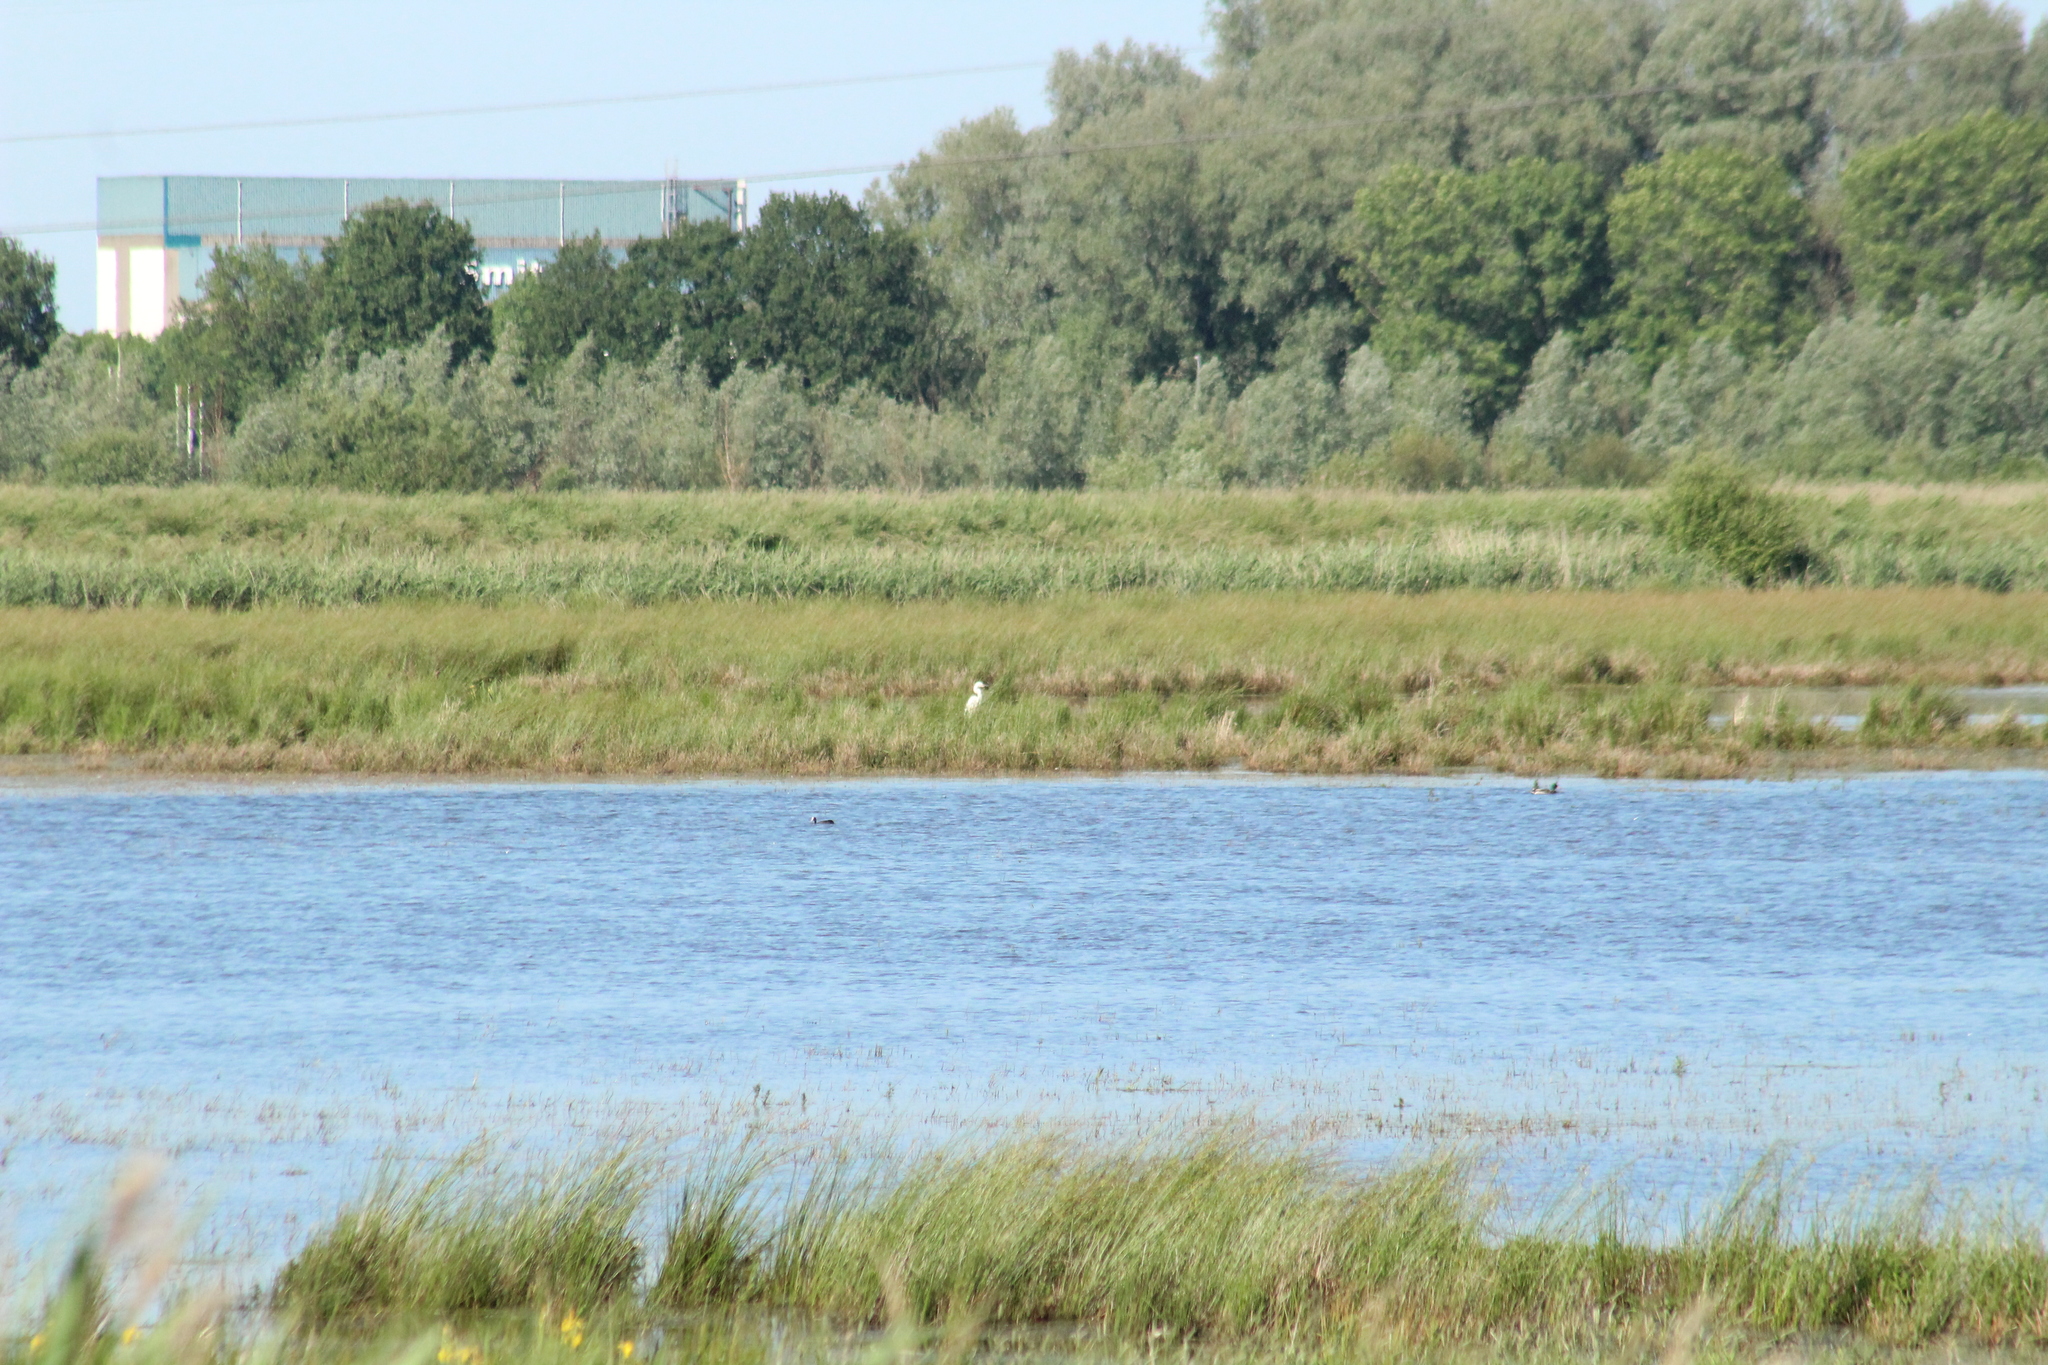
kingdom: Animalia
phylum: Chordata
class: Aves
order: Pelecaniformes
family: Ardeidae
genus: Ardea
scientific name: Ardea alba
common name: Great egret
